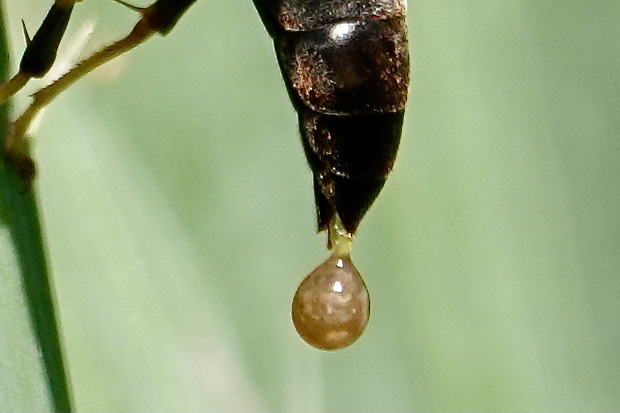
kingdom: Animalia
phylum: Arthropoda
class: Insecta
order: Hymenoptera
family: Eumenidae
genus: Polistes
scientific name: Polistes metricus
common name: Metric paper wasp
